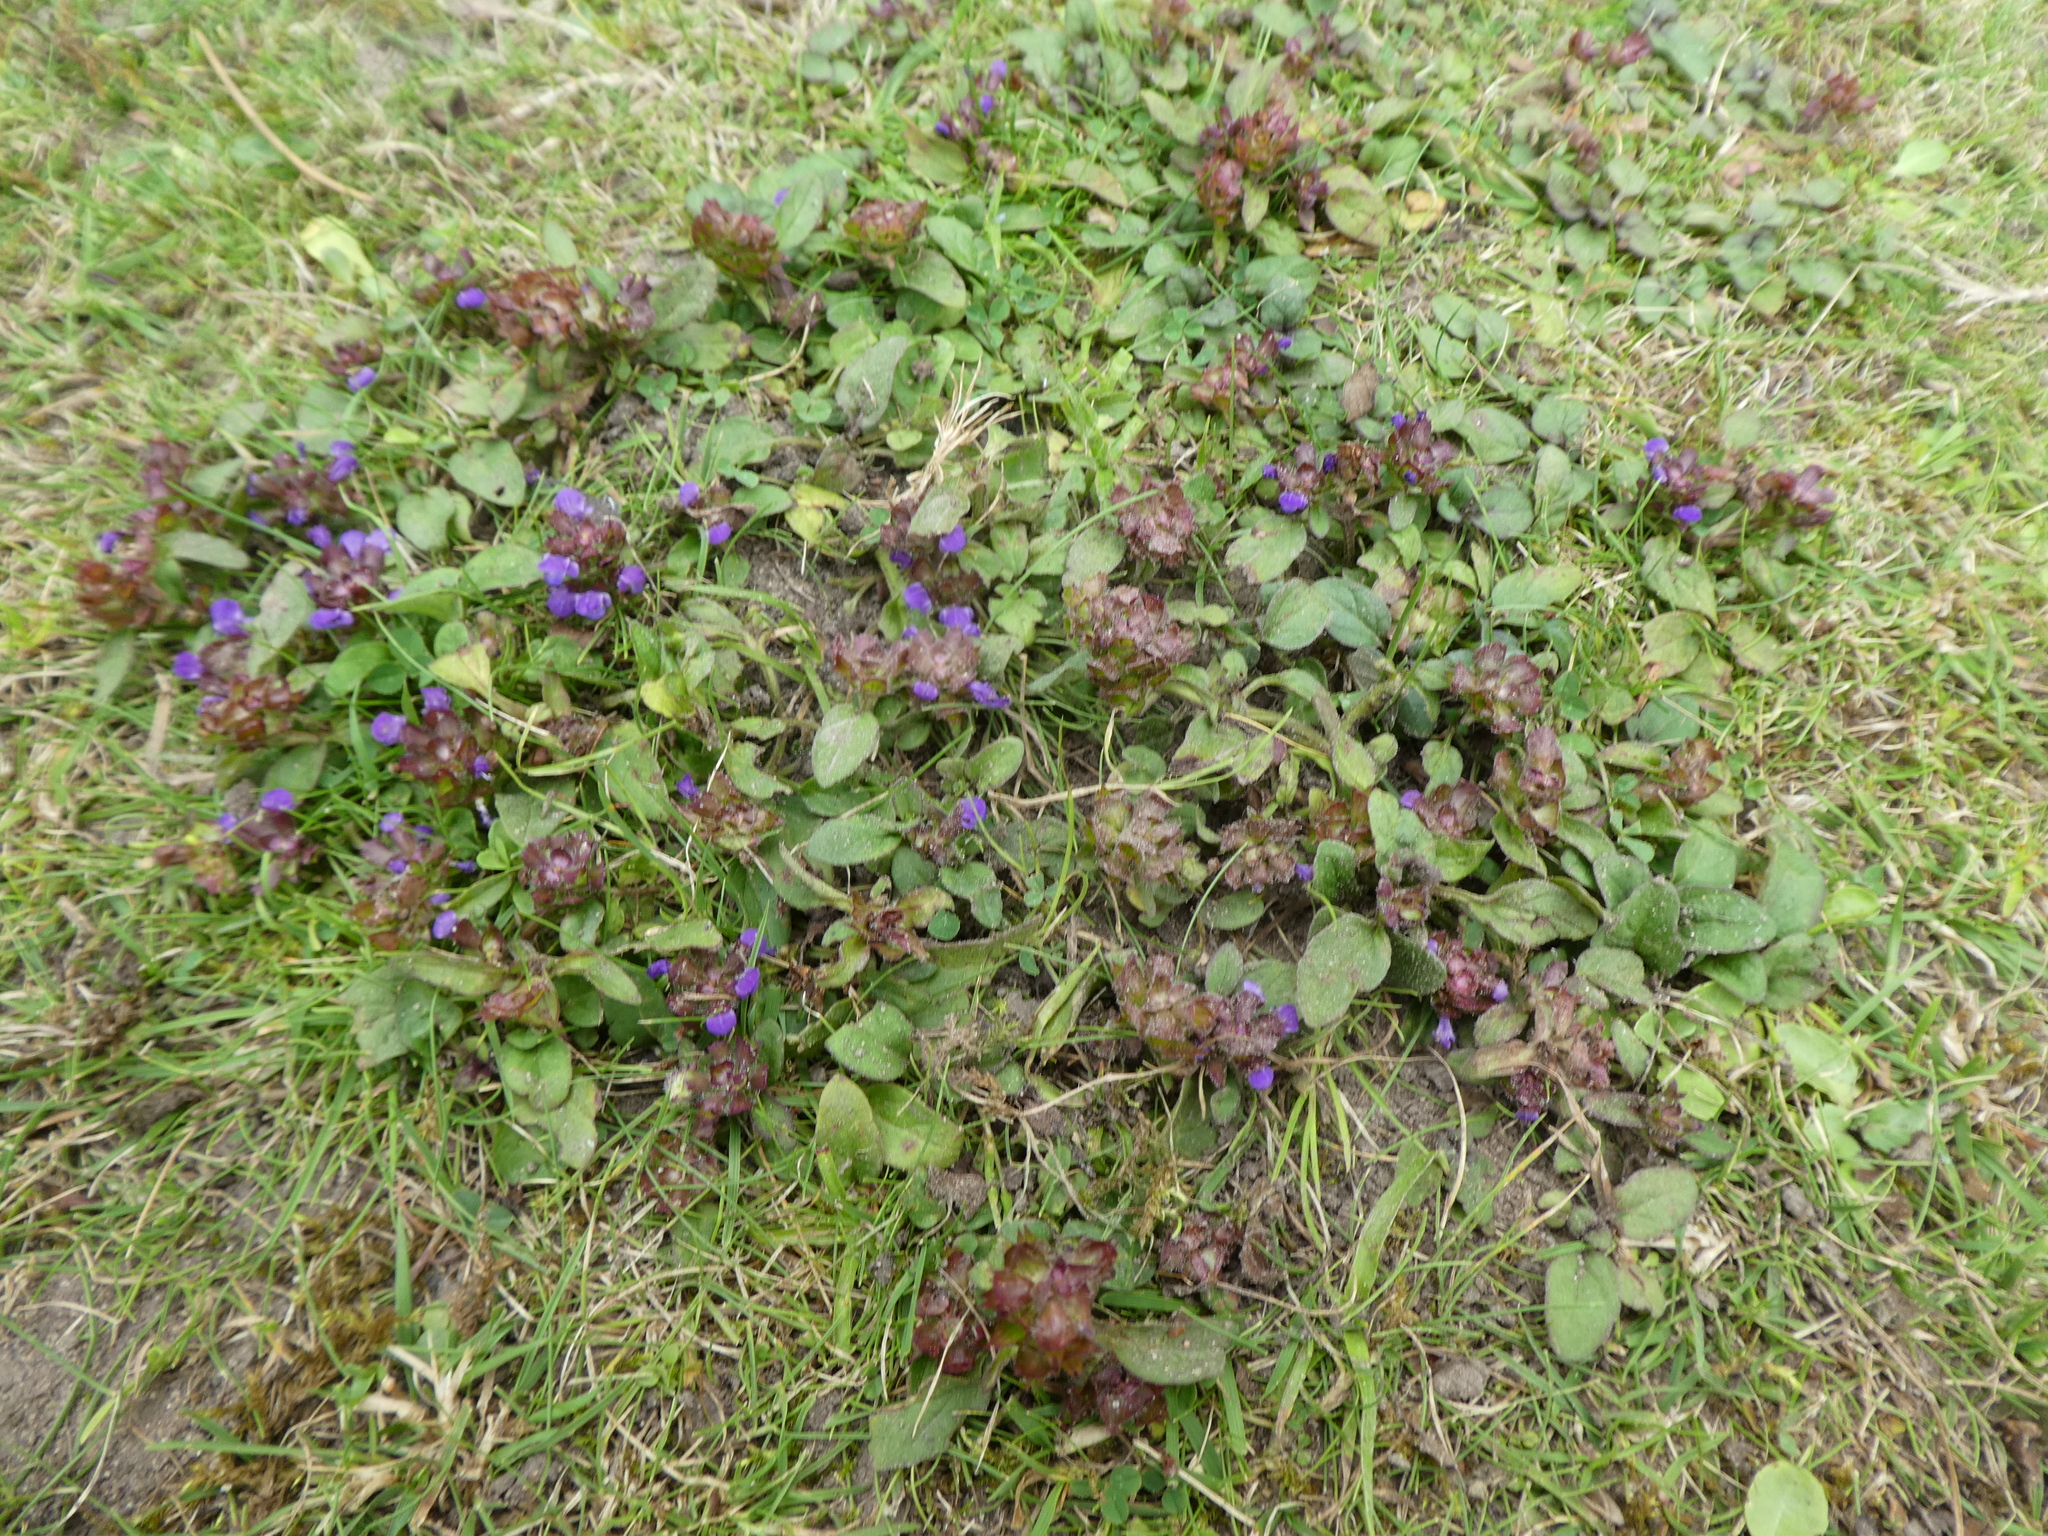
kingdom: Plantae
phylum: Tracheophyta
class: Magnoliopsida
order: Lamiales
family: Lamiaceae
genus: Prunella
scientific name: Prunella vulgaris
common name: Heal-all
